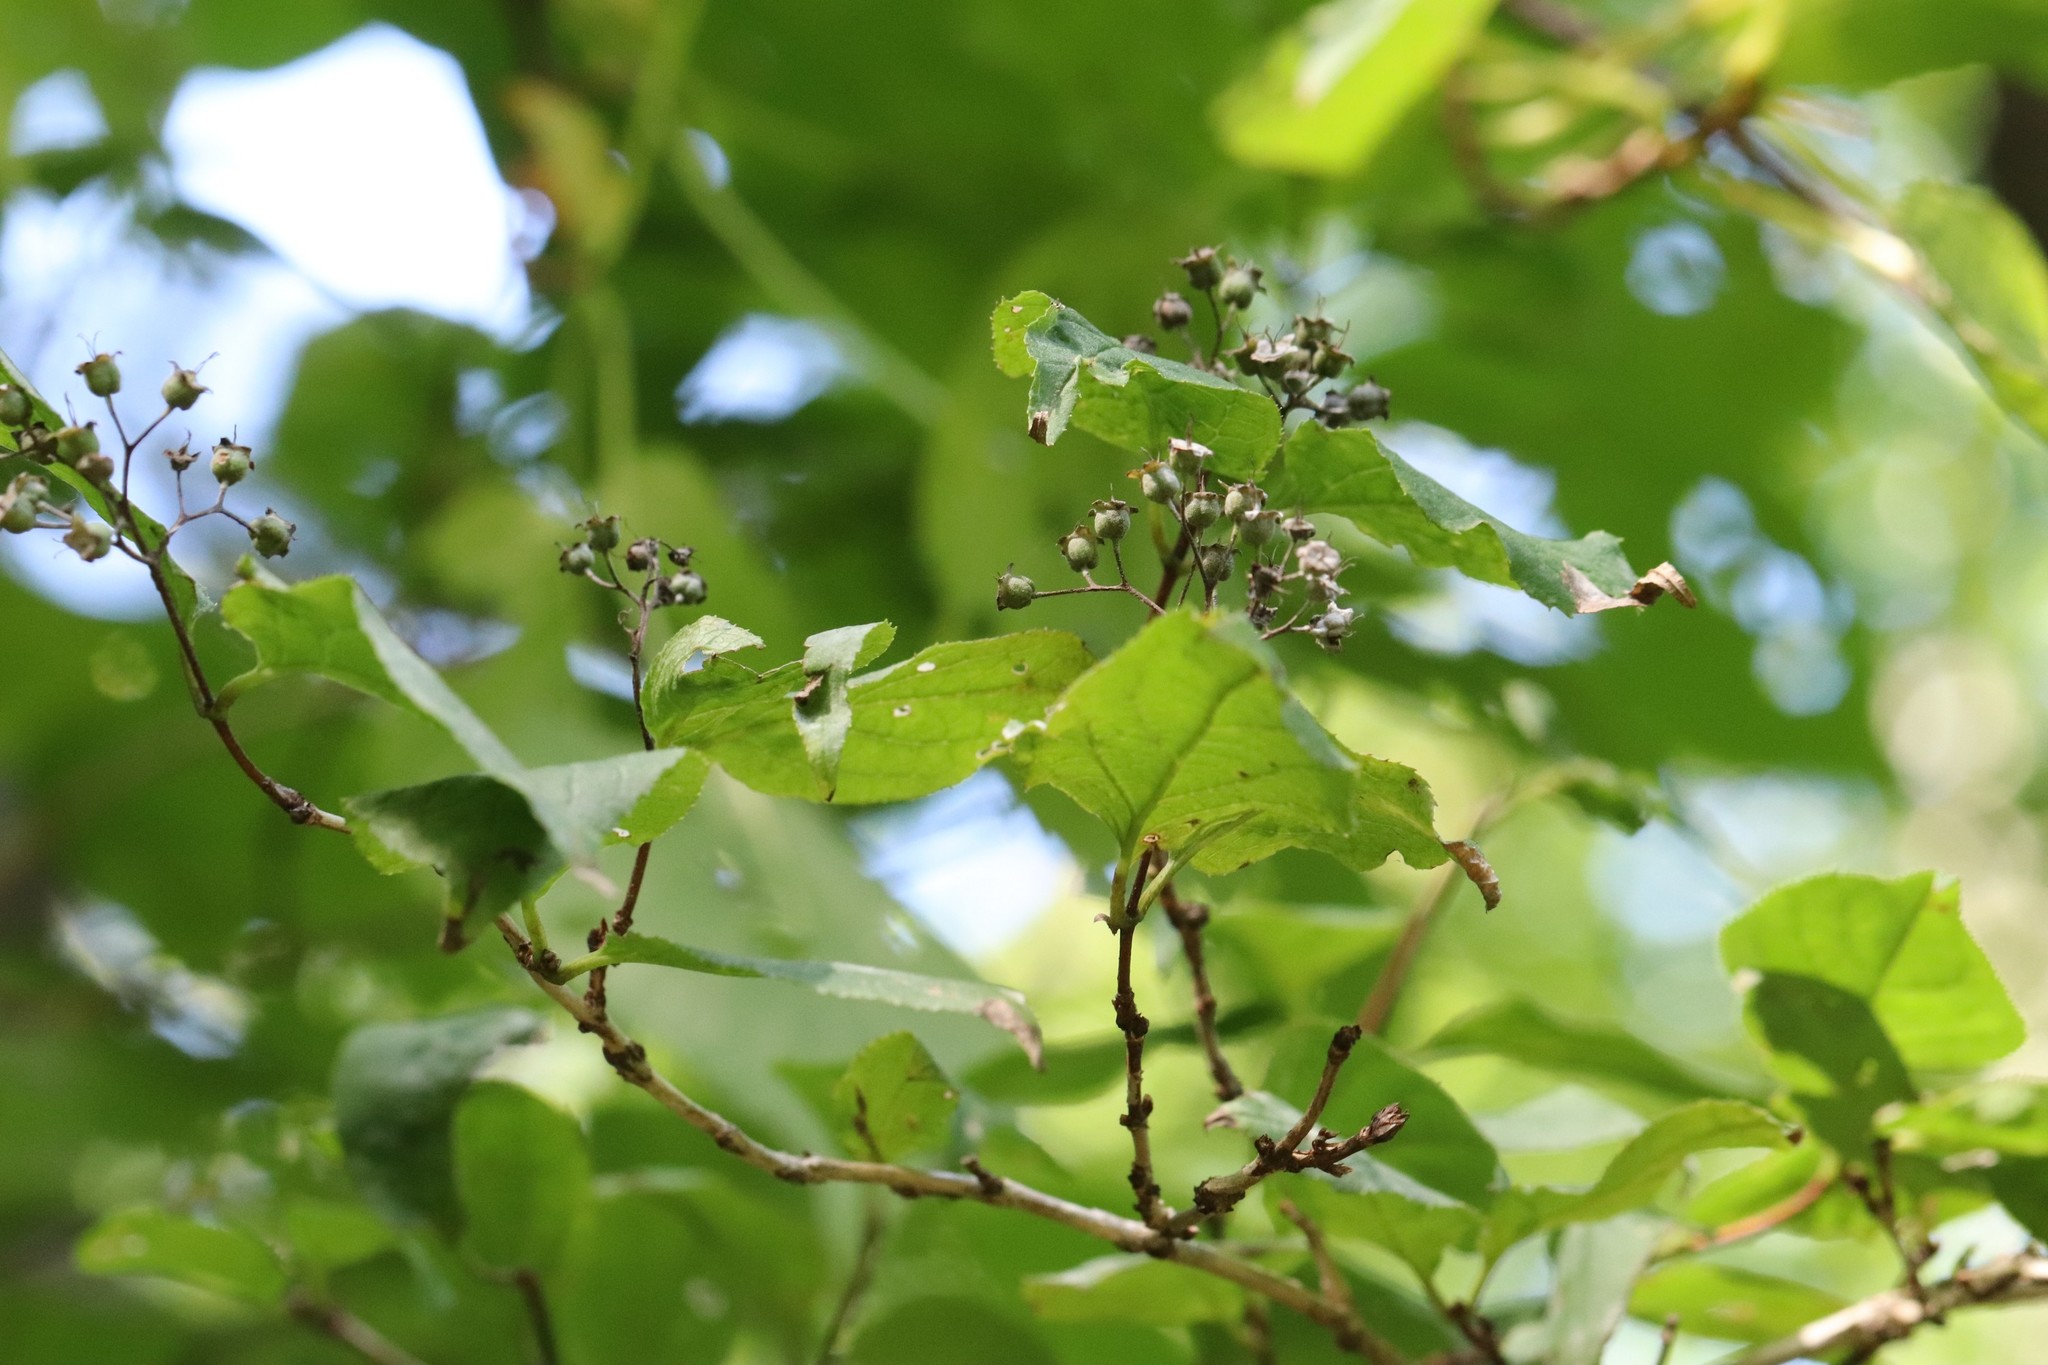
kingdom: Plantae
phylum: Tracheophyta
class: Magnoliopsida
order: Cornales
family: Hydrangeaceae
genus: Deutzia
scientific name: Deutzia parviflora
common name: Mongolian pride-of-rochester
